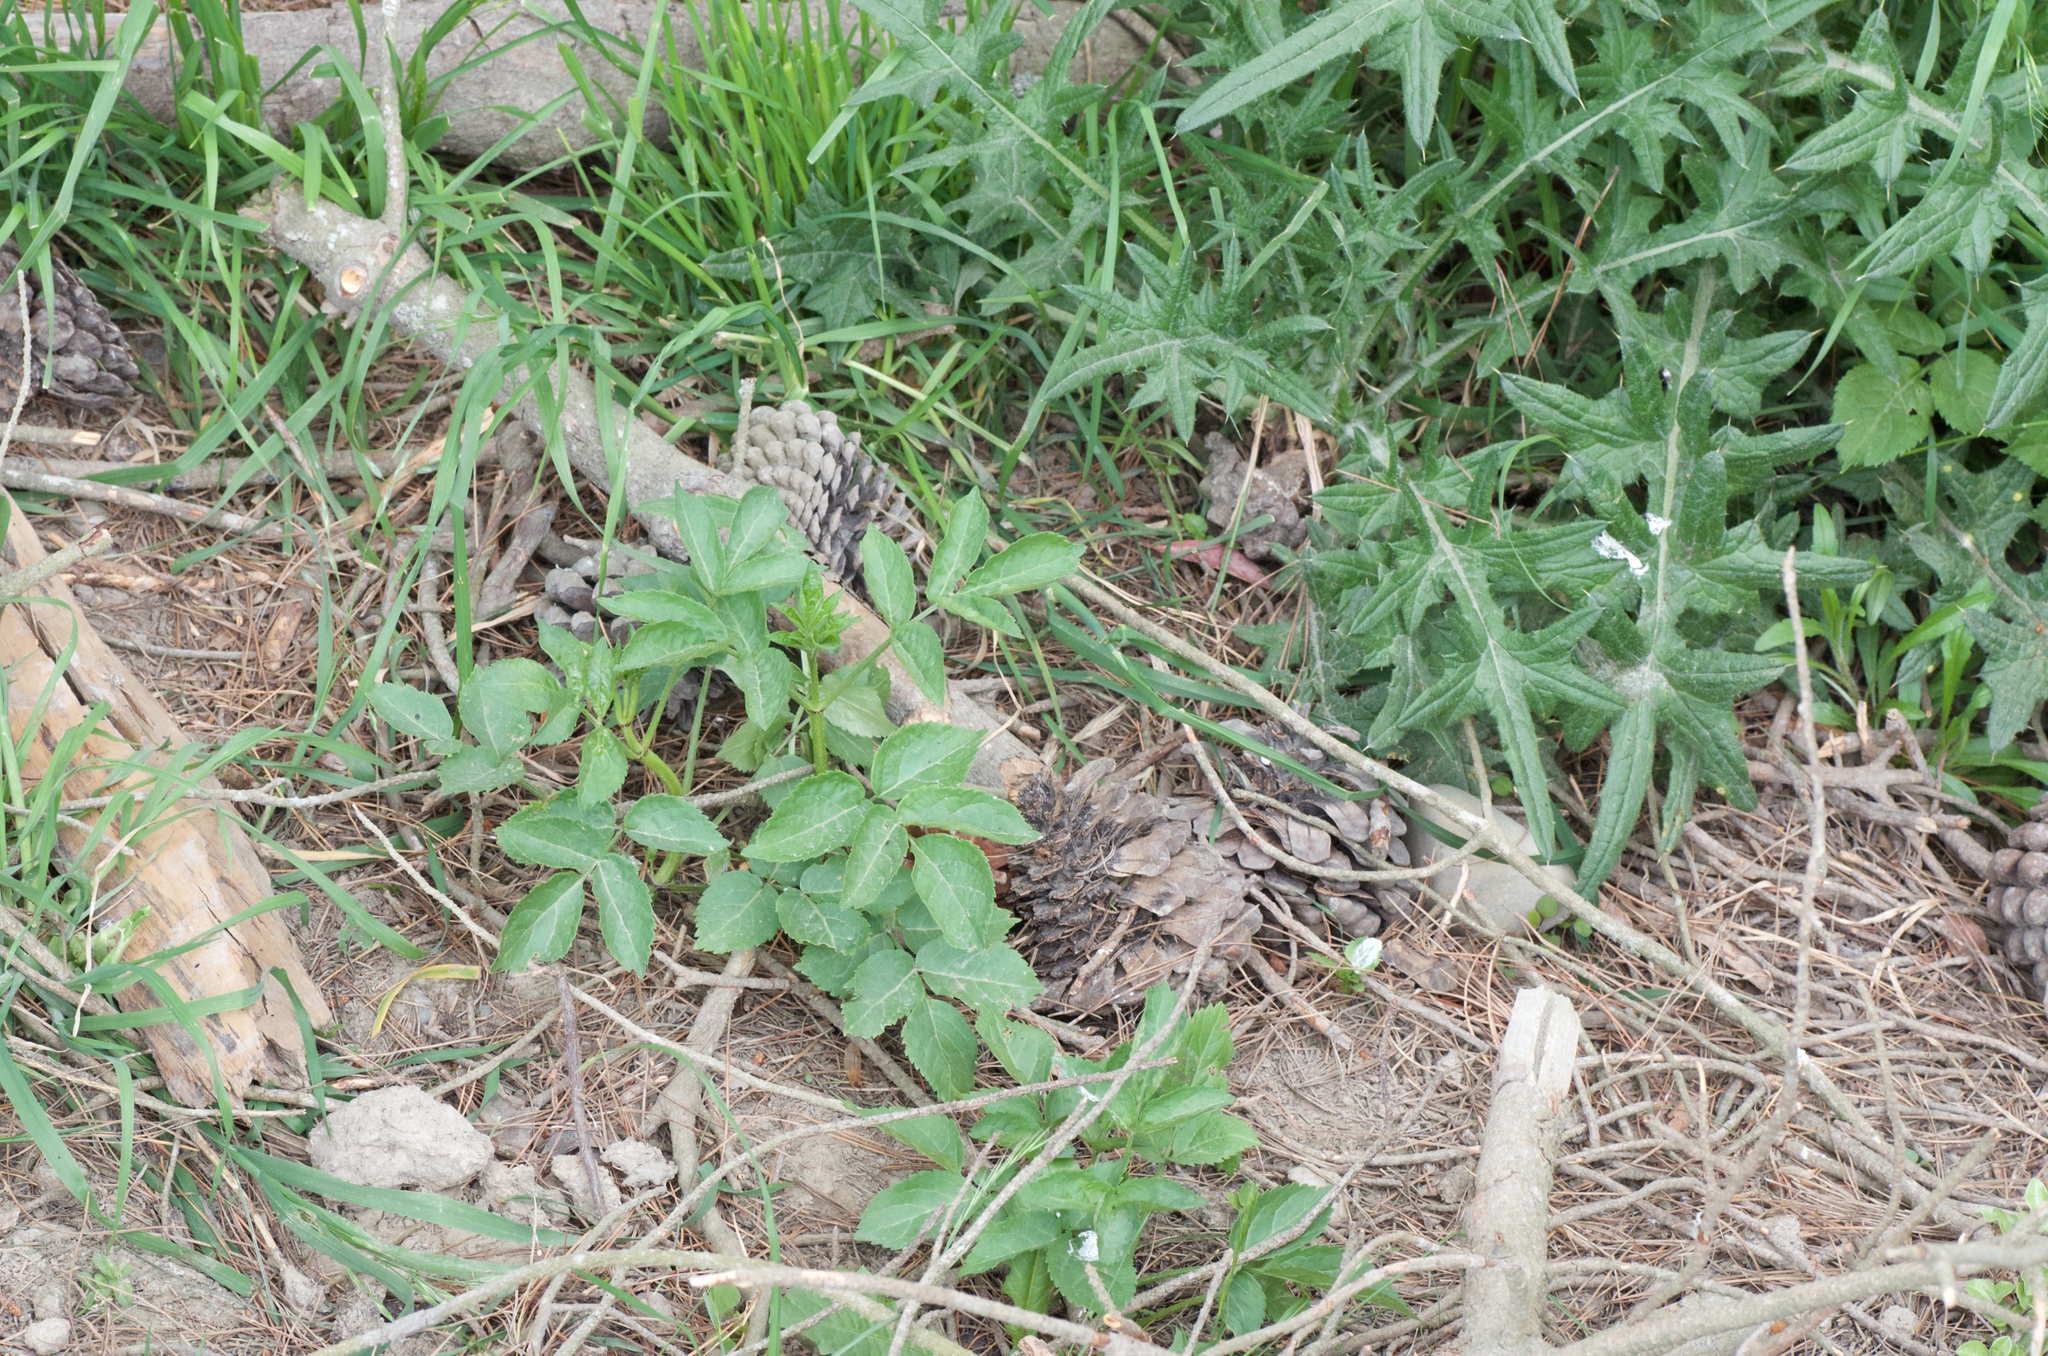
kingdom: Plantae
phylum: Tracheophyta
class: Magnoliopsida
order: Dipsacales
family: Viburnaceae
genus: Sambucus
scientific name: Sambucus nigra
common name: Elder
